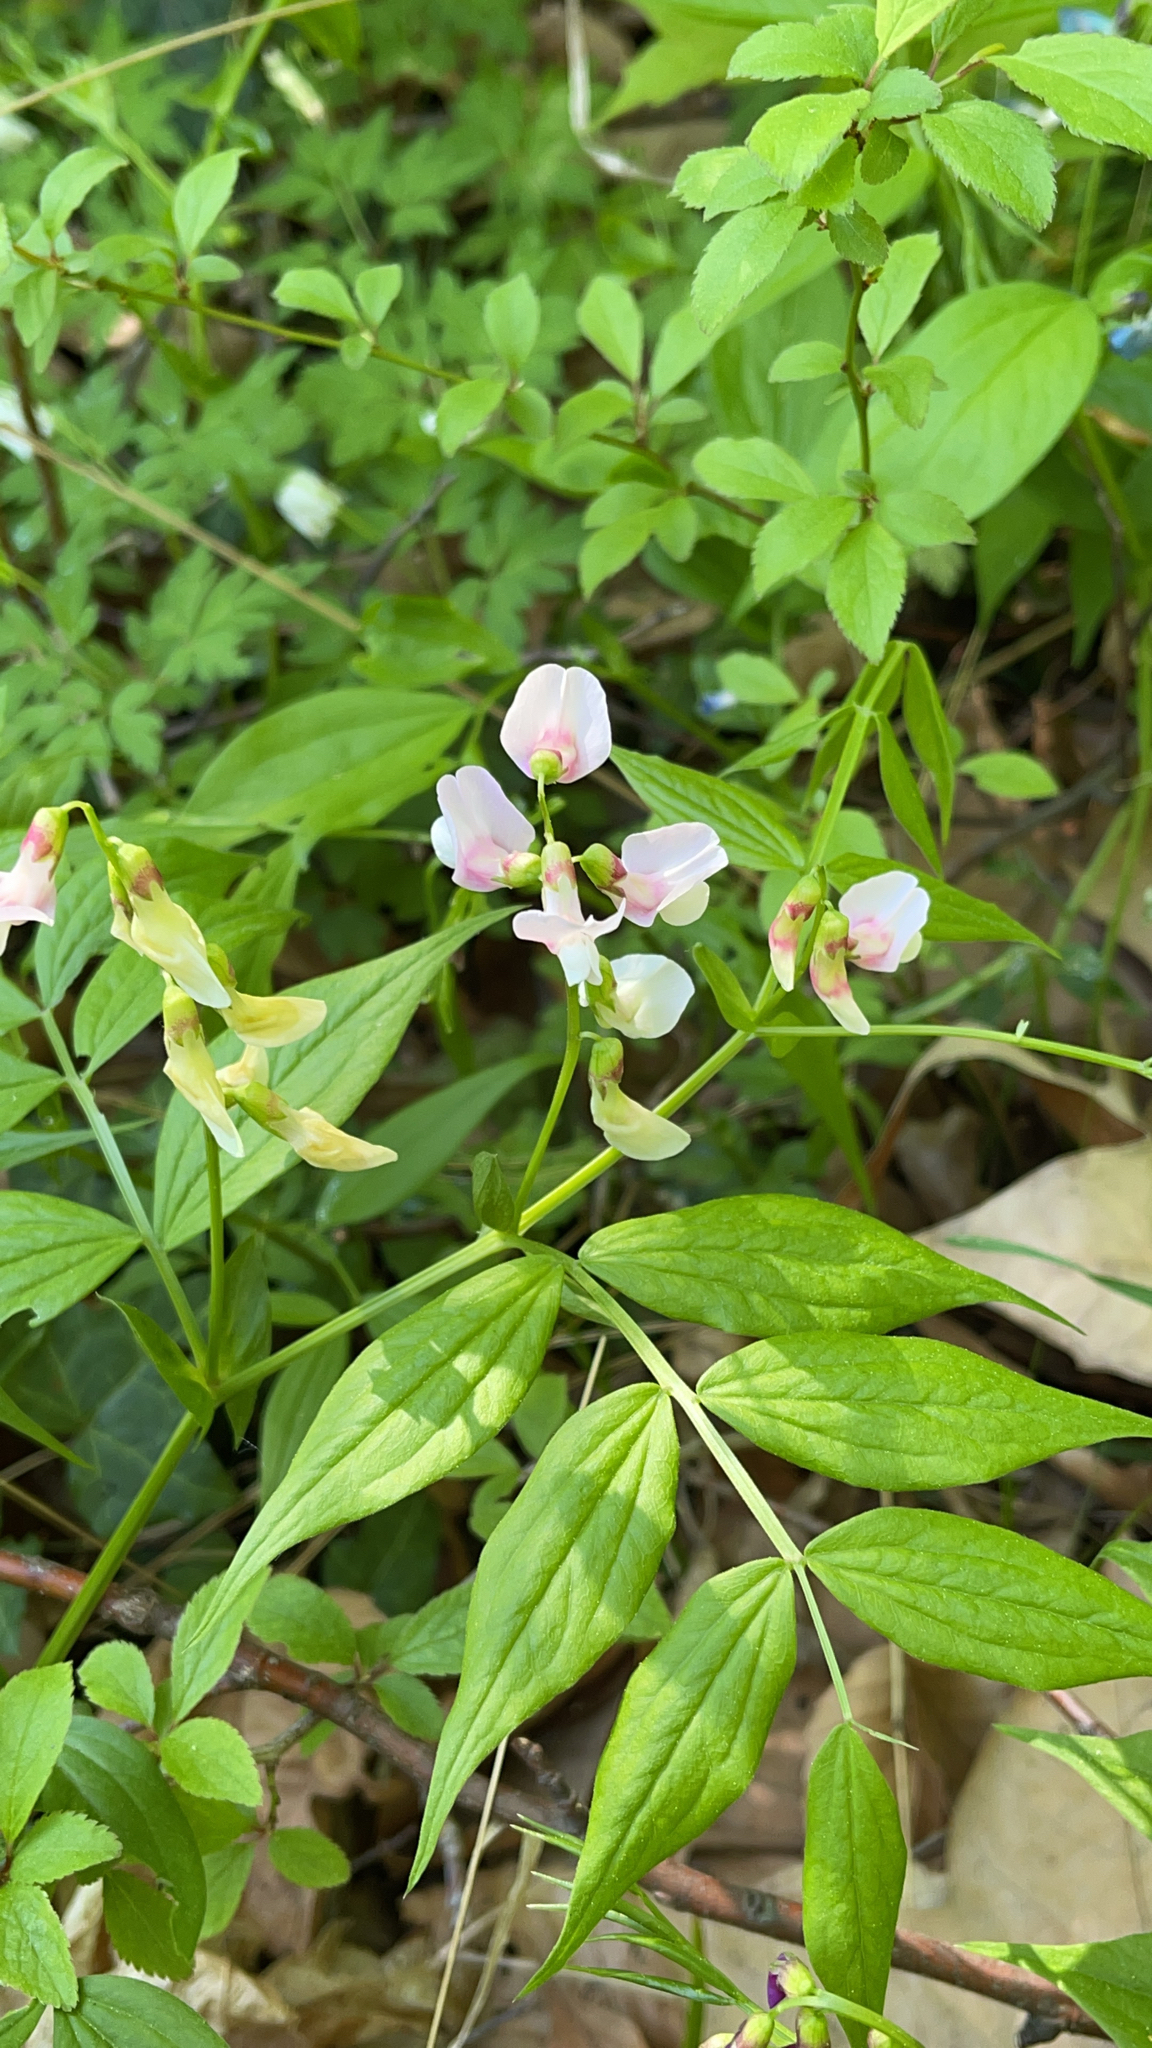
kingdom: Plantae
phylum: Tracheophyta
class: Magnoliopsida
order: Fabales
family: Fabaceae
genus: Lathyrus
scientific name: Lathyrus vernus
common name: Spring pea
